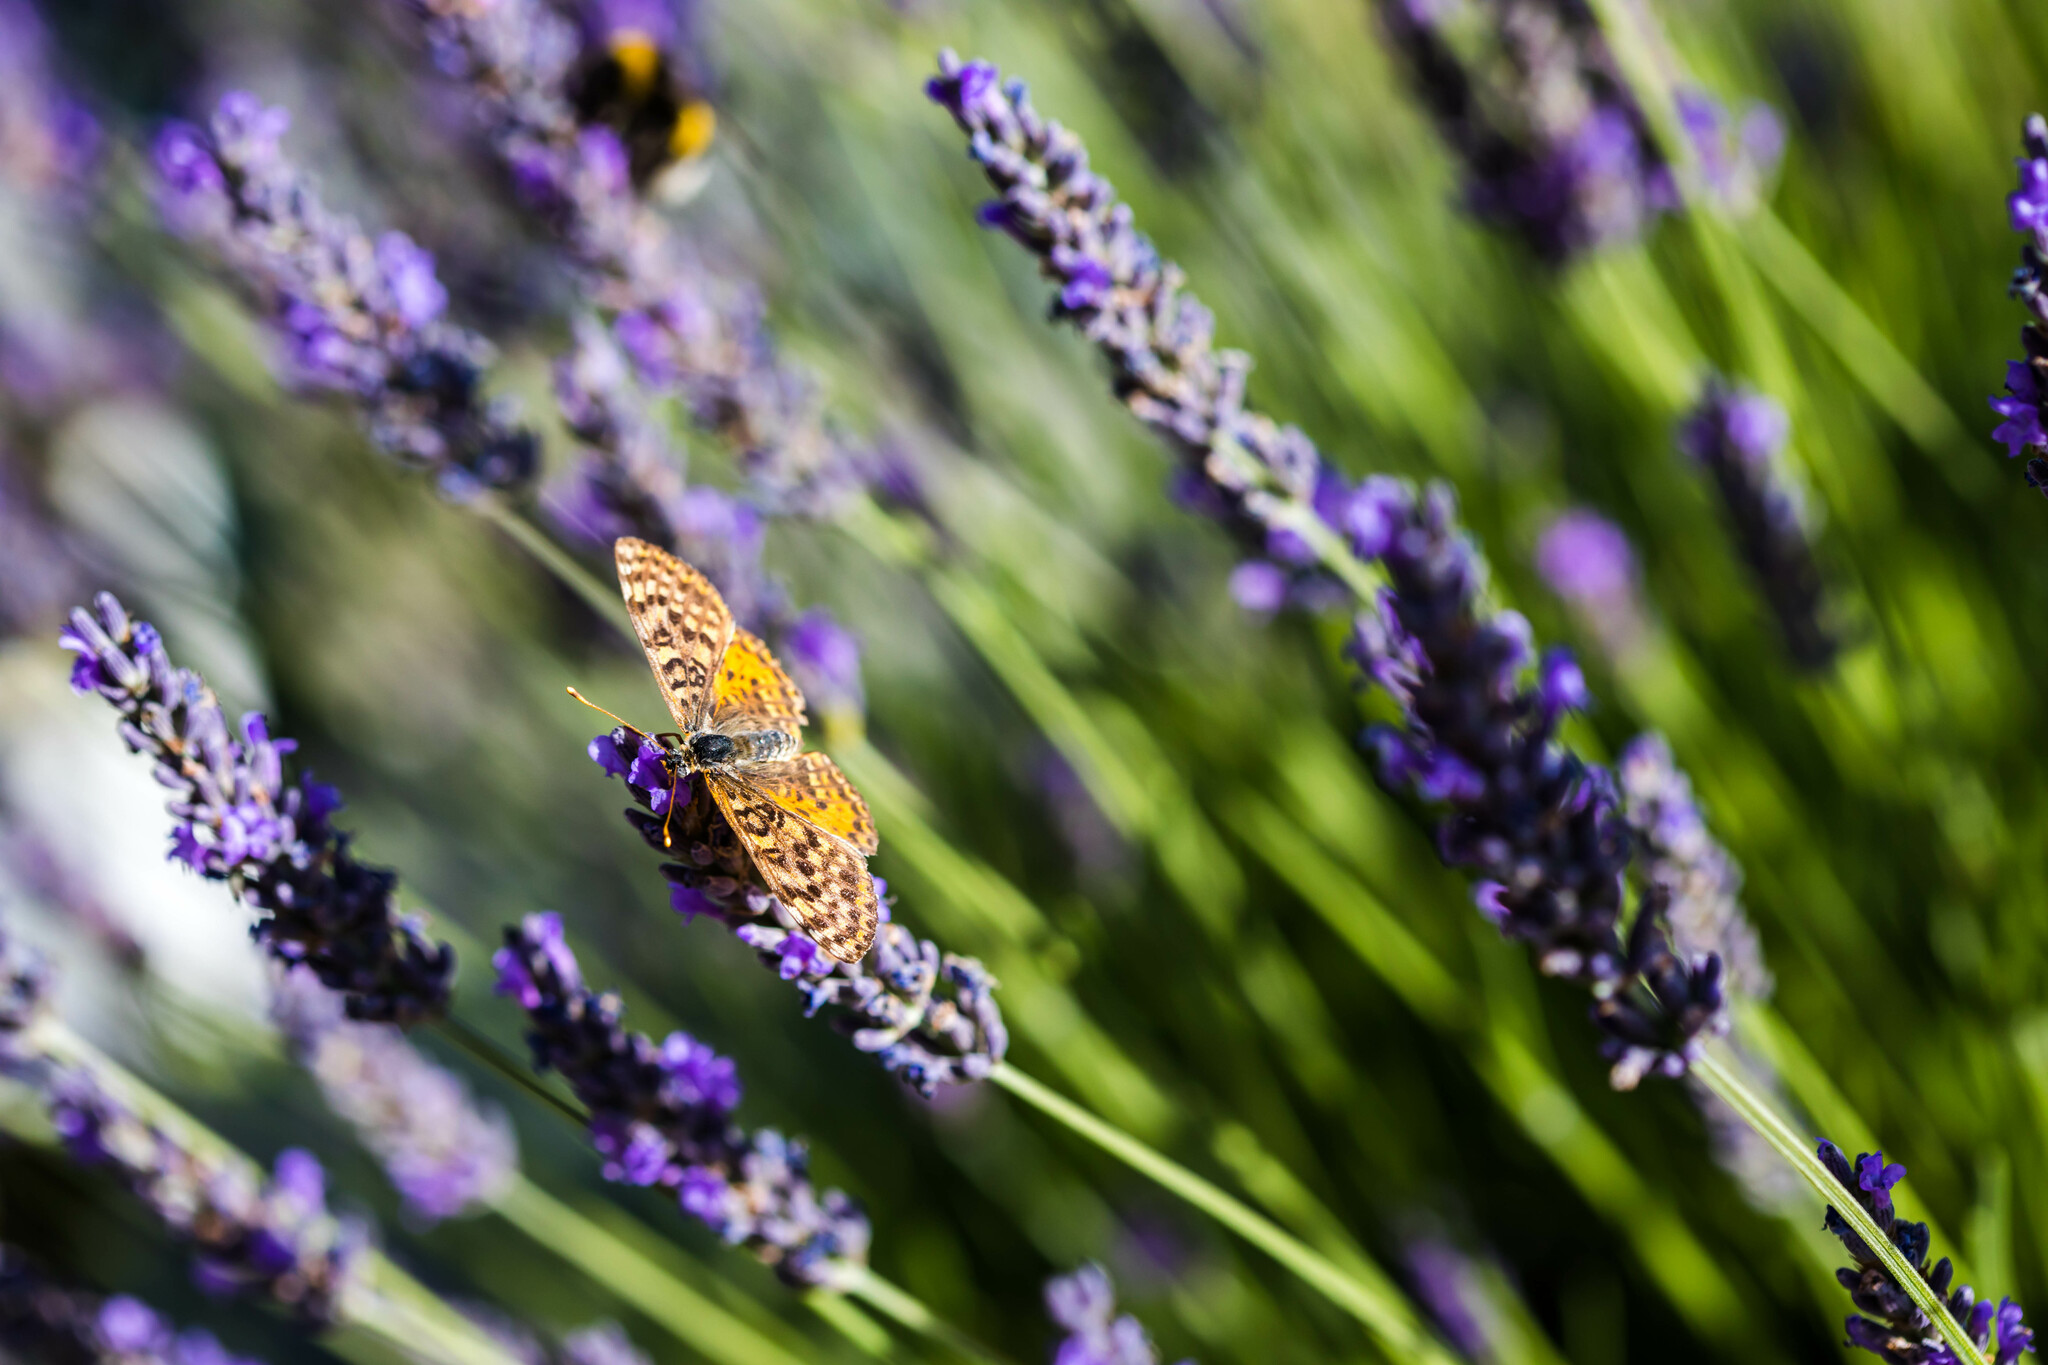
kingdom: Animalia
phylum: Arthropoda
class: Insecta
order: Lepidoptera
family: Nymphalidae
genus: Melitaea
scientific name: Melitaea didyma
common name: Spotted fritillary
